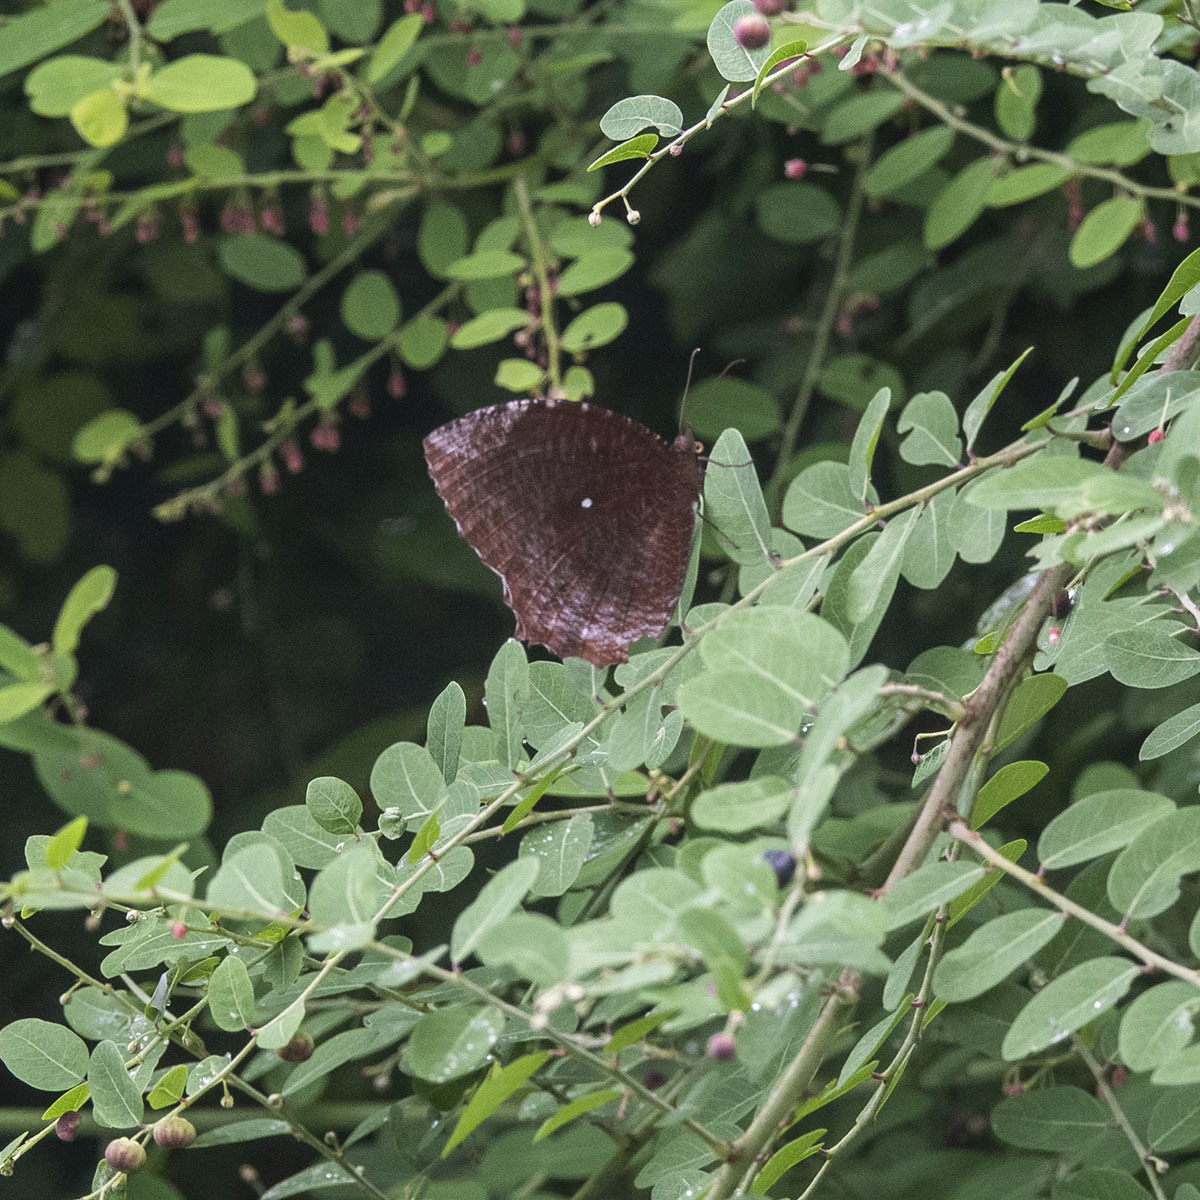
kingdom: Animalia
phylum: Arthropoda
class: Insecta
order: Lepidoptera
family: Nymphalidae
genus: Elymnias
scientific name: Elymnias hypermnestra
